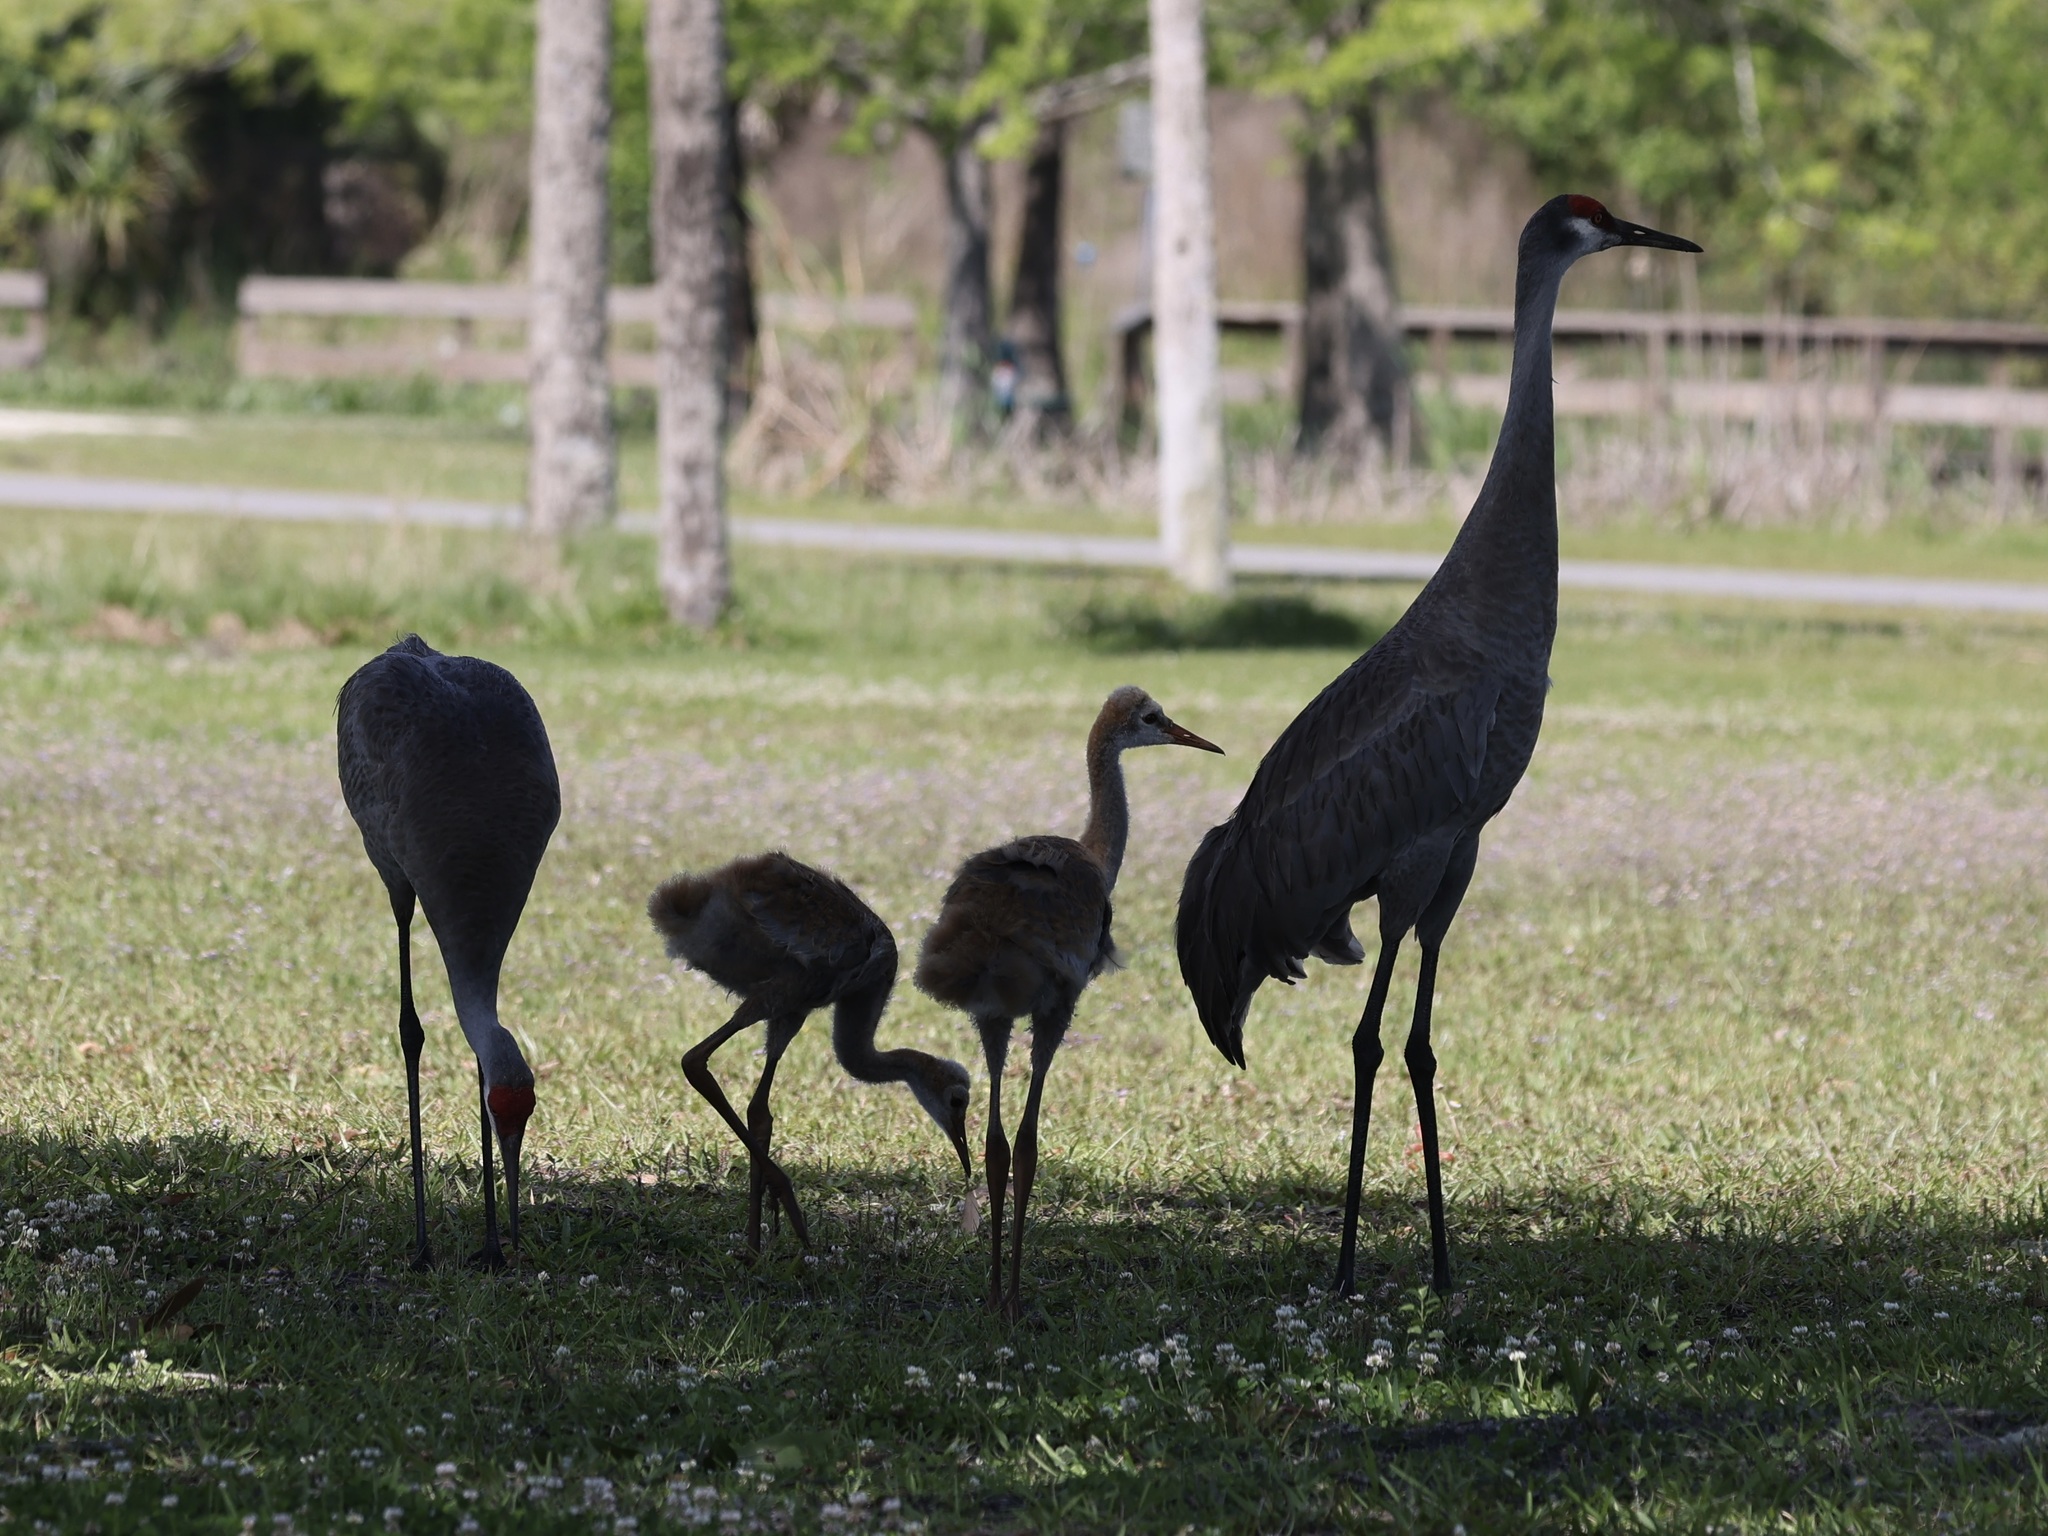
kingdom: Animalia
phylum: Chordata
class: Aves
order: Gruiformes
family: Gruidae
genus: Grus
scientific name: Grus canadensis
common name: Sandhill crane
